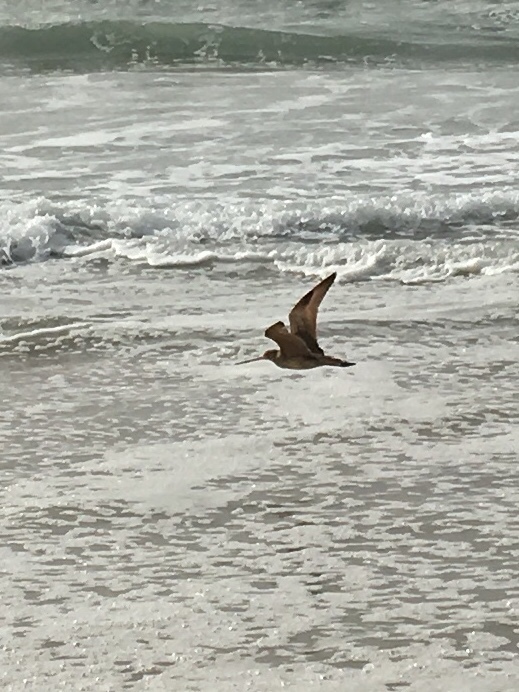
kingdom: Animalia
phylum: Chordata
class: Aves
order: Charadriiformes
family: Scolopacidae
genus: Limosa
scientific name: Limosa fedoa
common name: Marbled godwit
